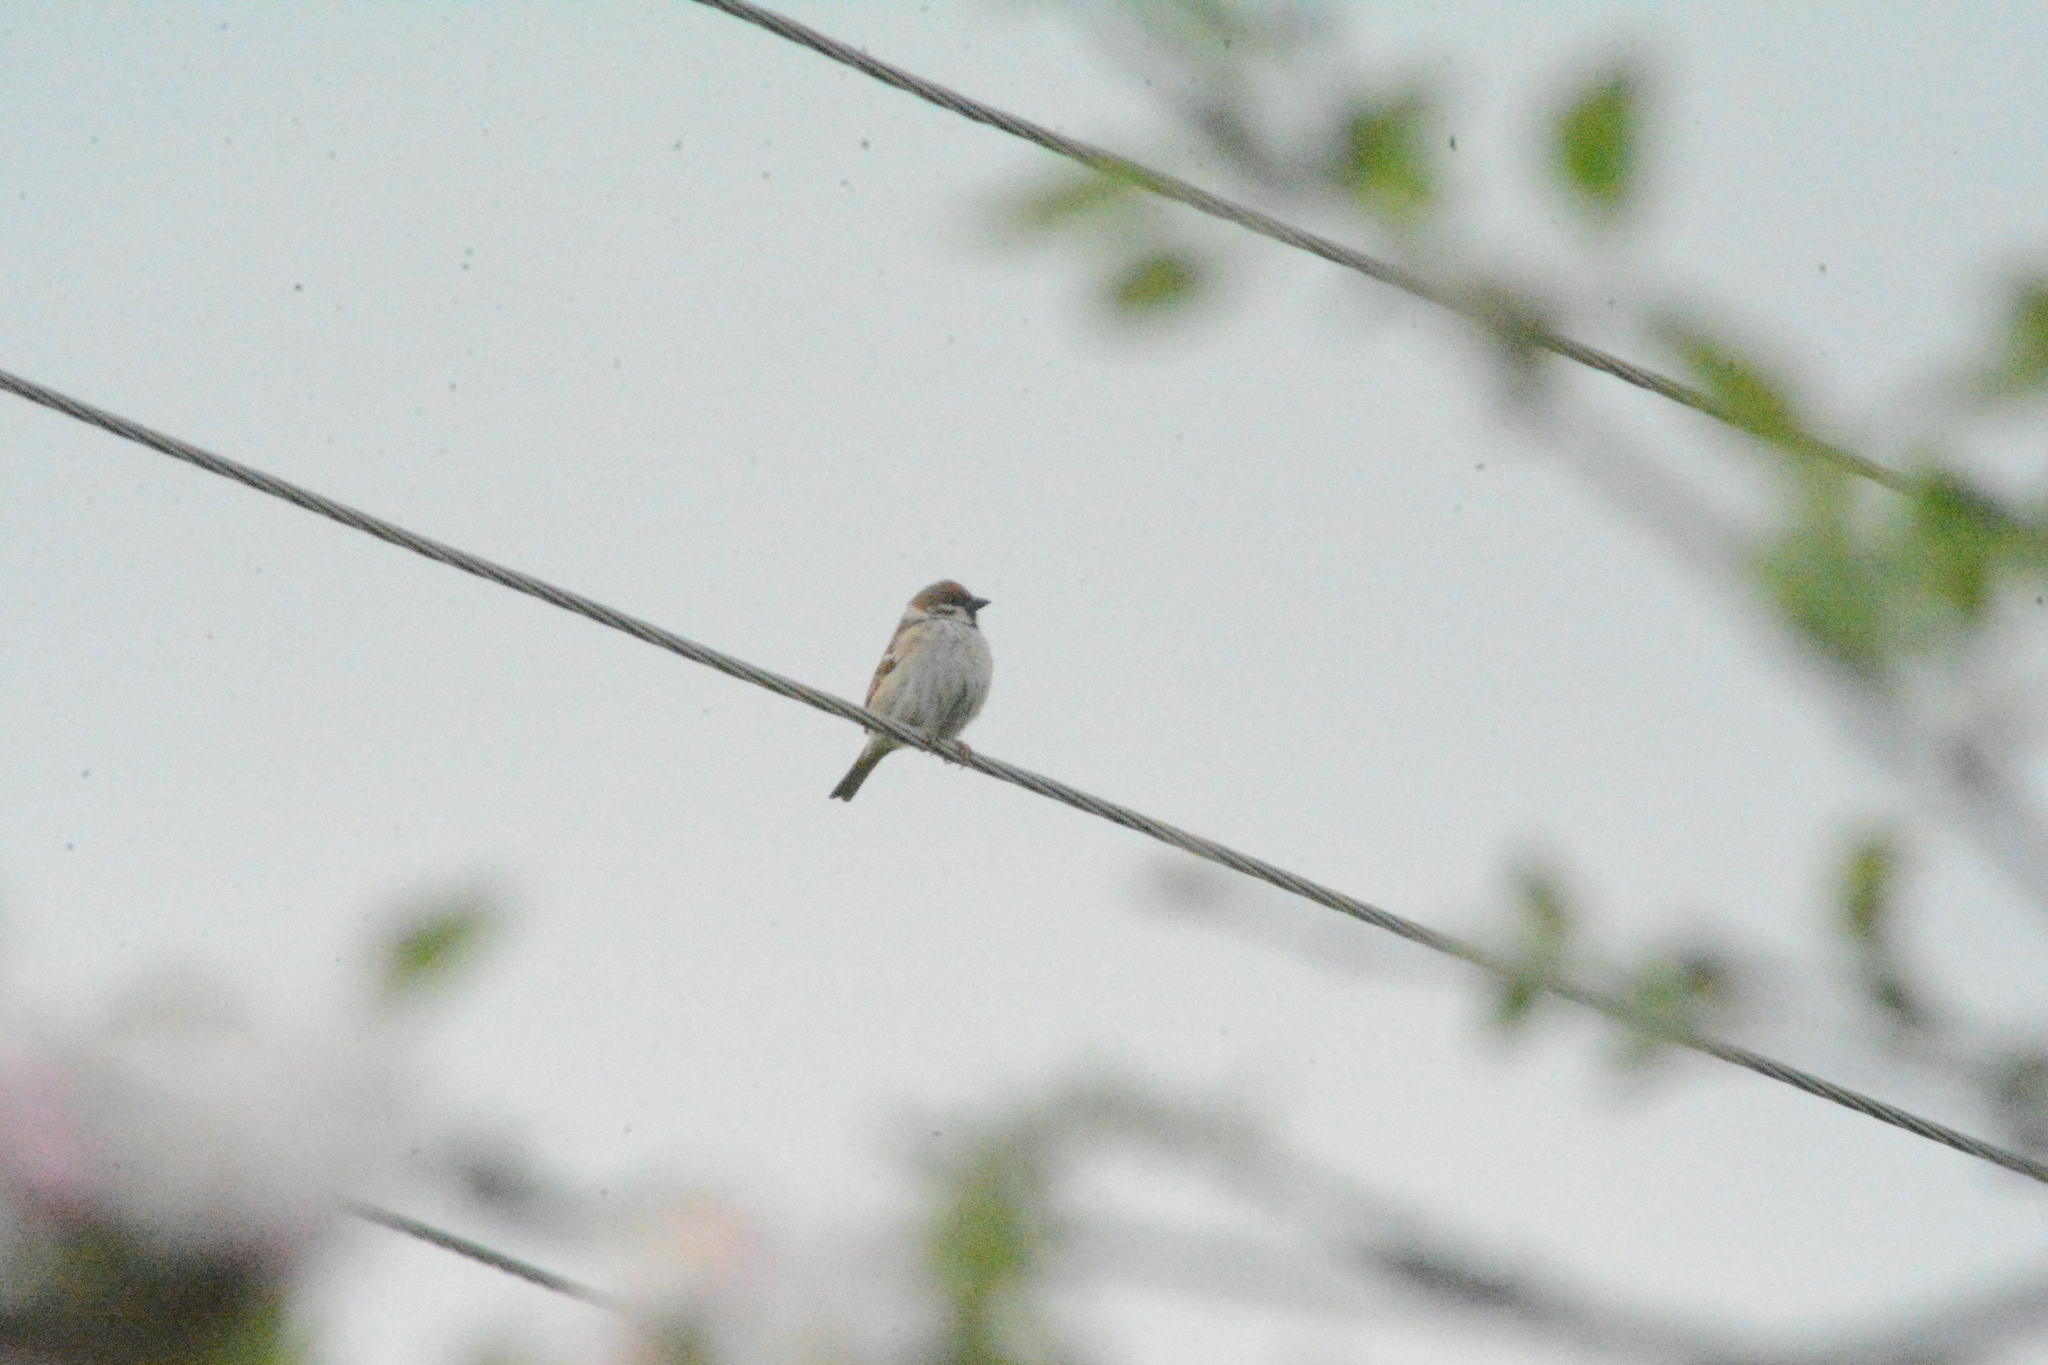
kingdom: Animalia
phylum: Chordata
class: Aves
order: Passeriformes
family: Passeridae
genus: Passer
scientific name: Passer montanus
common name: Eurasian tree sparrow
